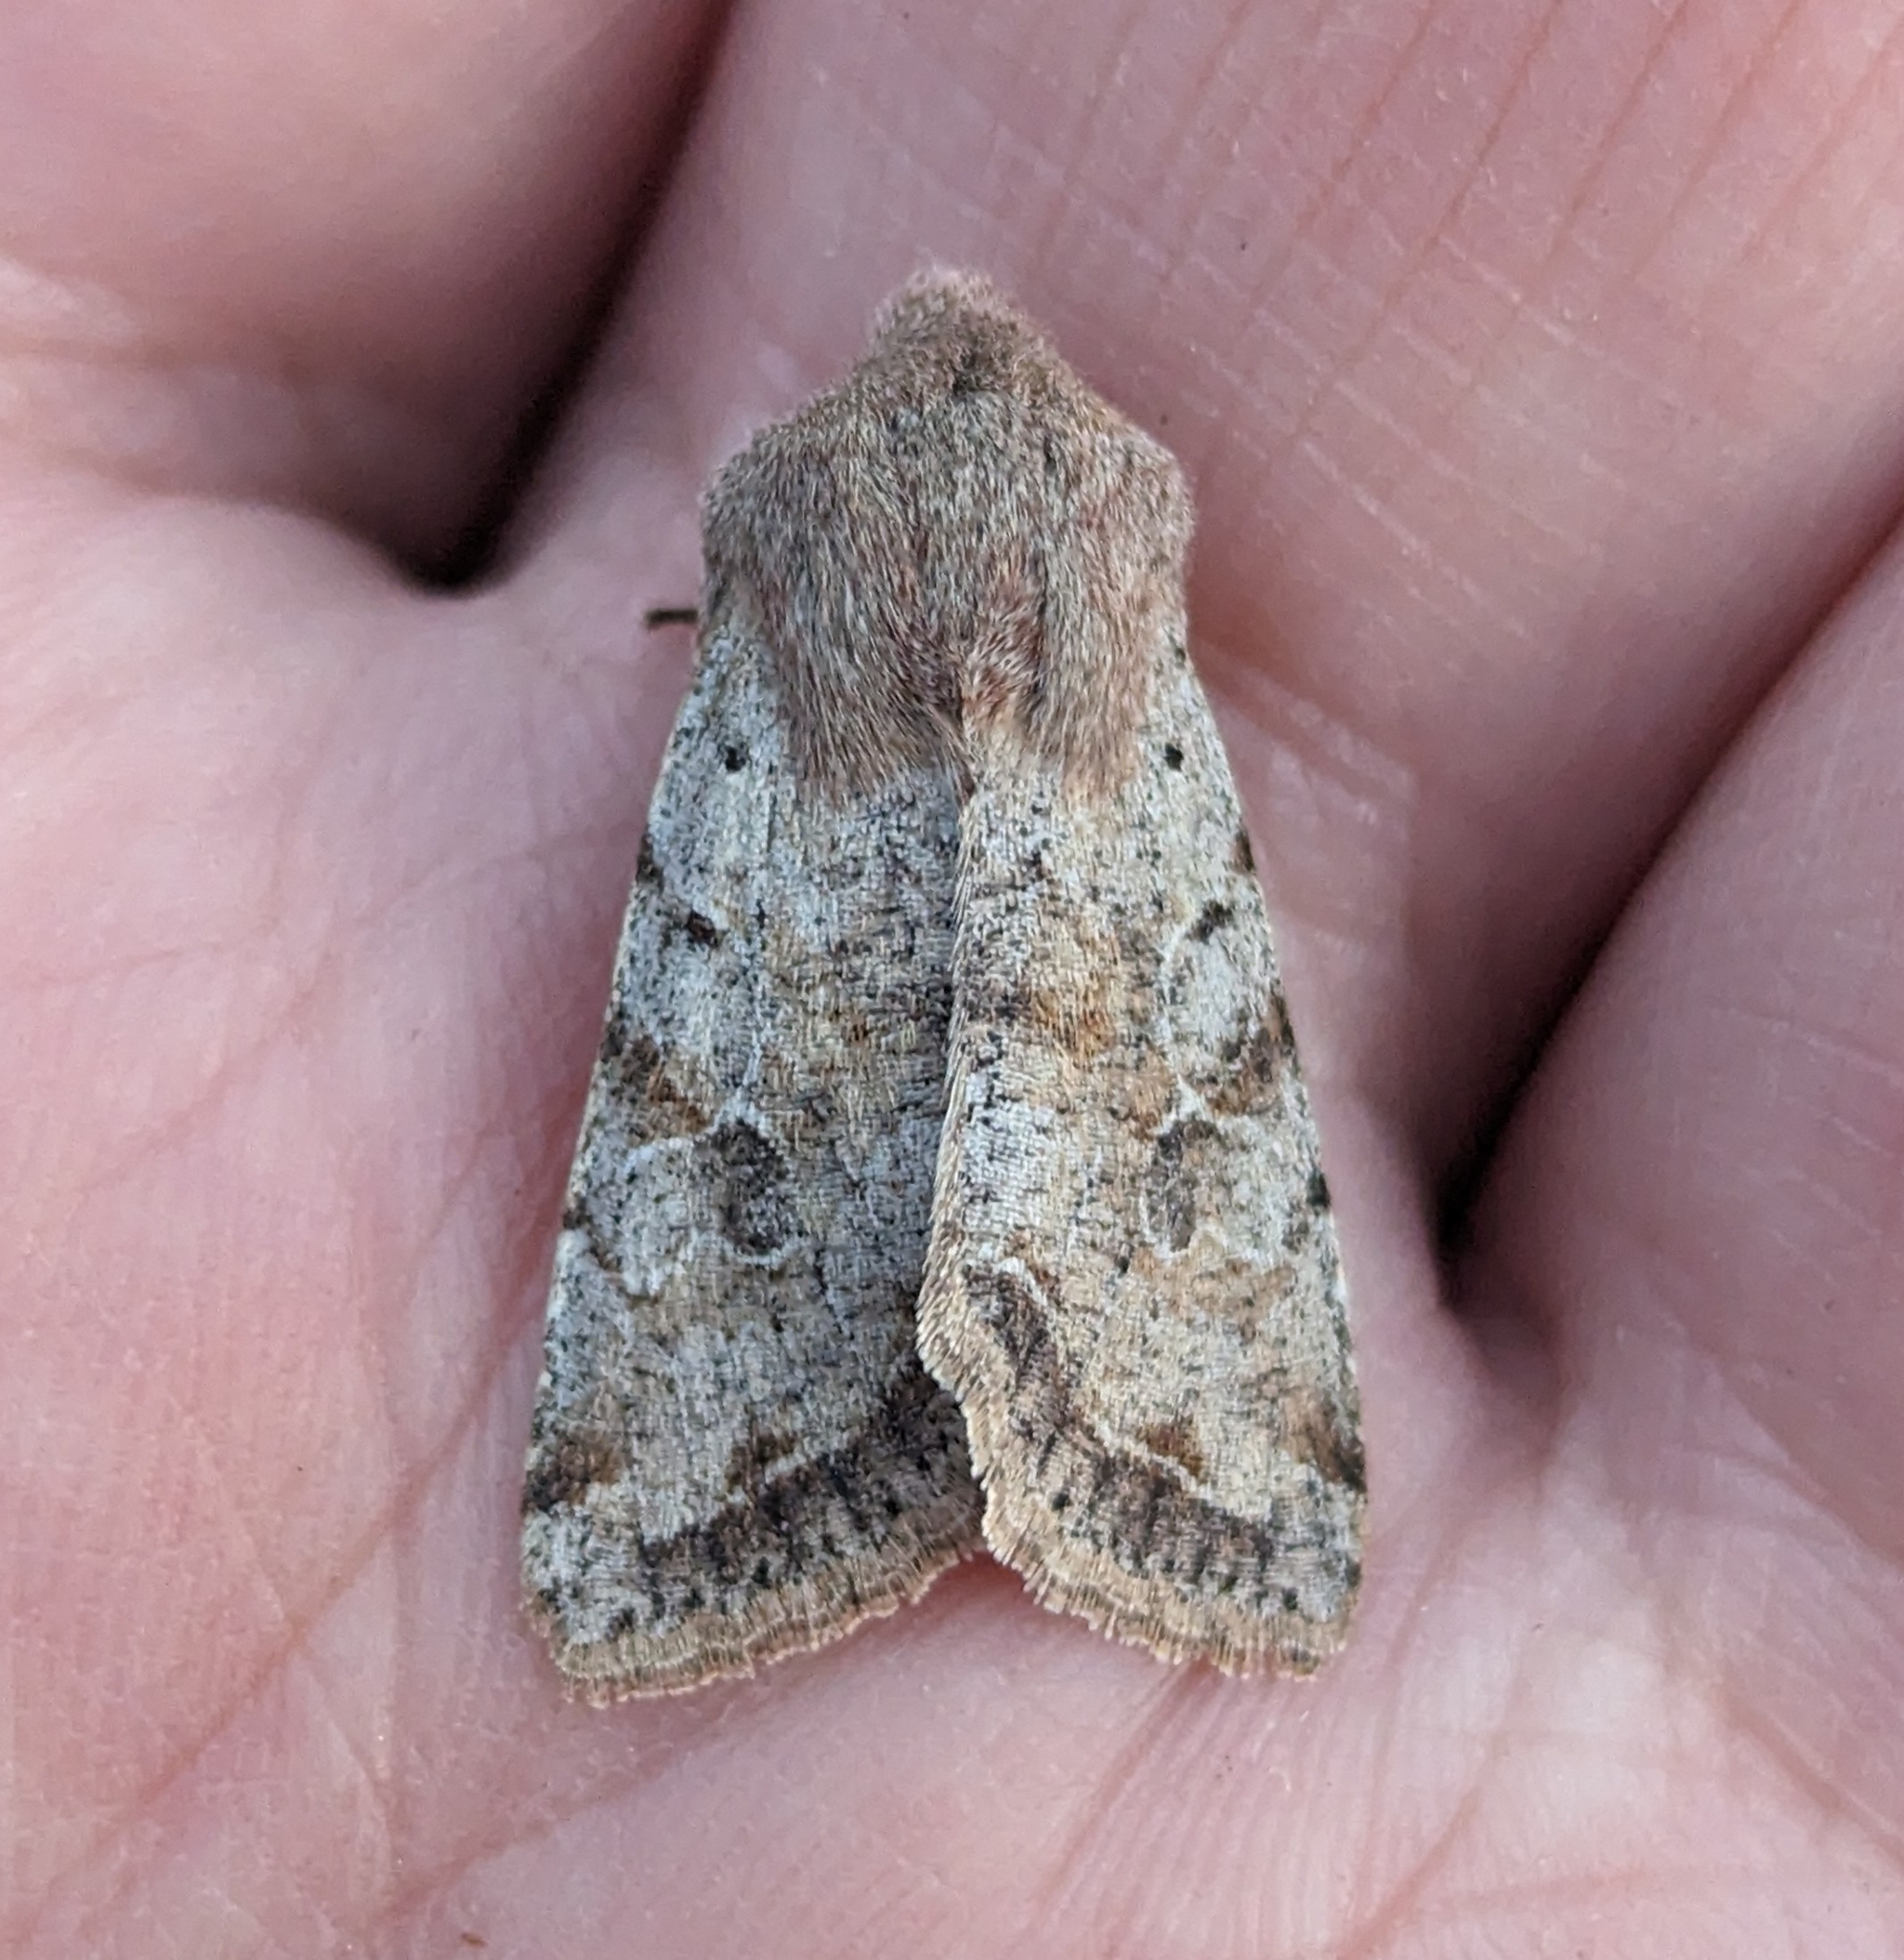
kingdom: Animalia
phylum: Arthropoda
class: Insecta
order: Lepidoptera
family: Noctuidae
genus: Orthosia
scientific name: Orthosia hibisci
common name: Green fruitworm
